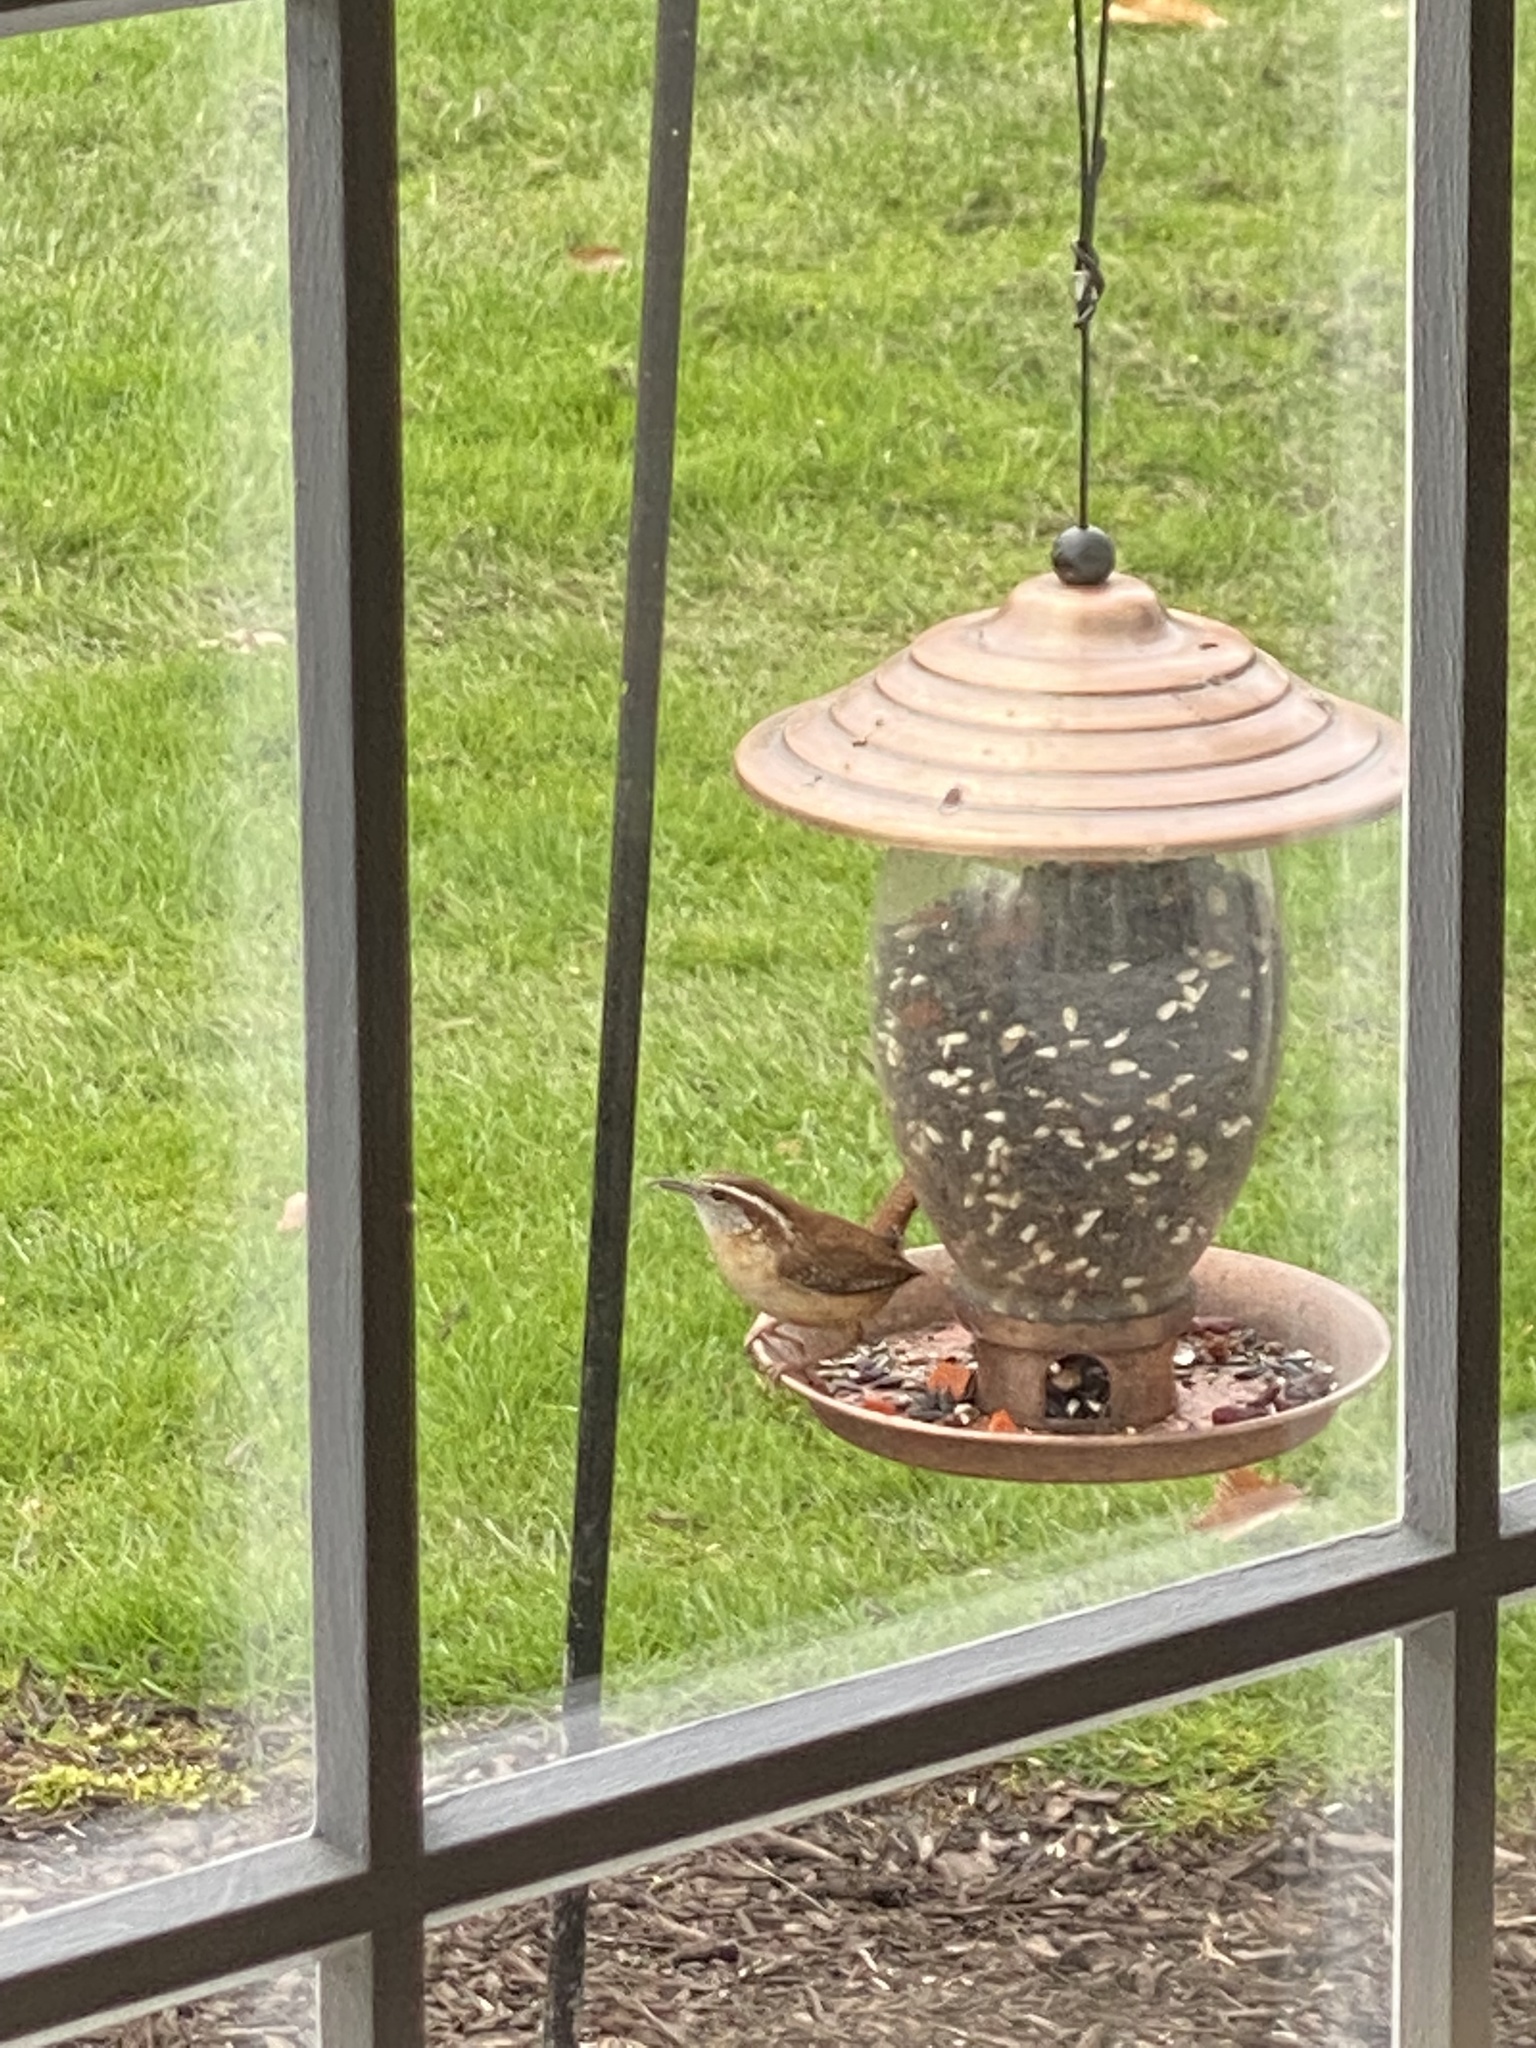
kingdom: Animalia
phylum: Chordata
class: Aves
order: Passeriformes
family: Troglodytidae
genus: Thryothorus
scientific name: Thryothorus ludovicianus
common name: Carolina wren
